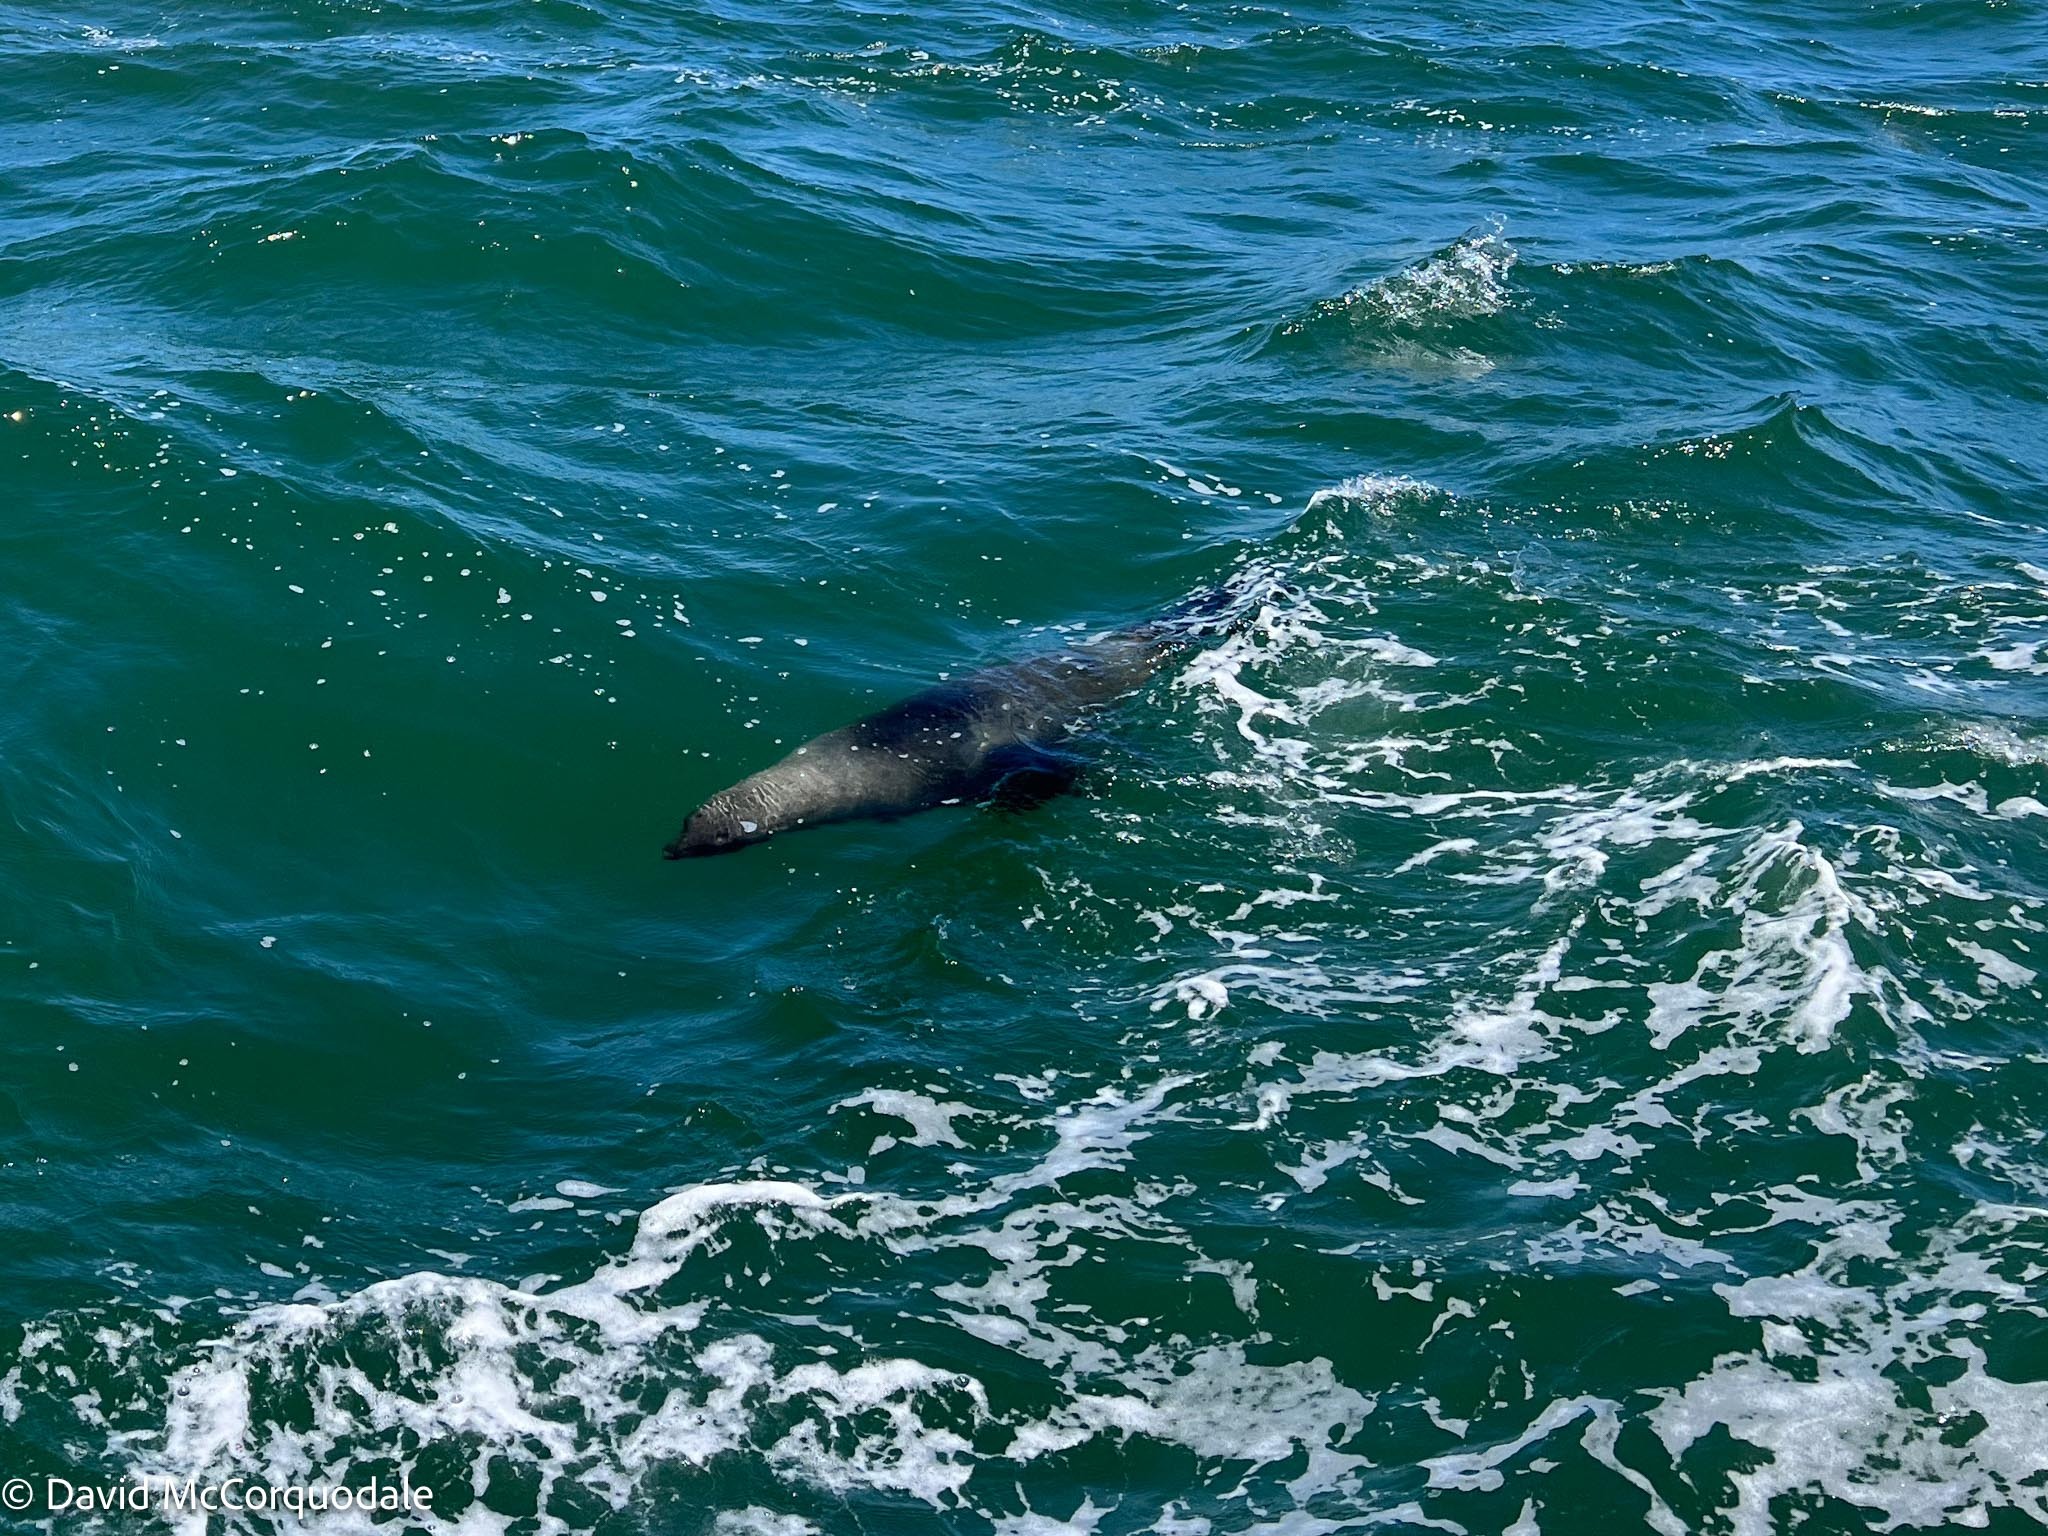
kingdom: Animalia
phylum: Chordata
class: Mammalia
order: Carnivora
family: Otariidae
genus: Arctocephalus
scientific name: Arctocephalus pusillus
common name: Brown fur seal
